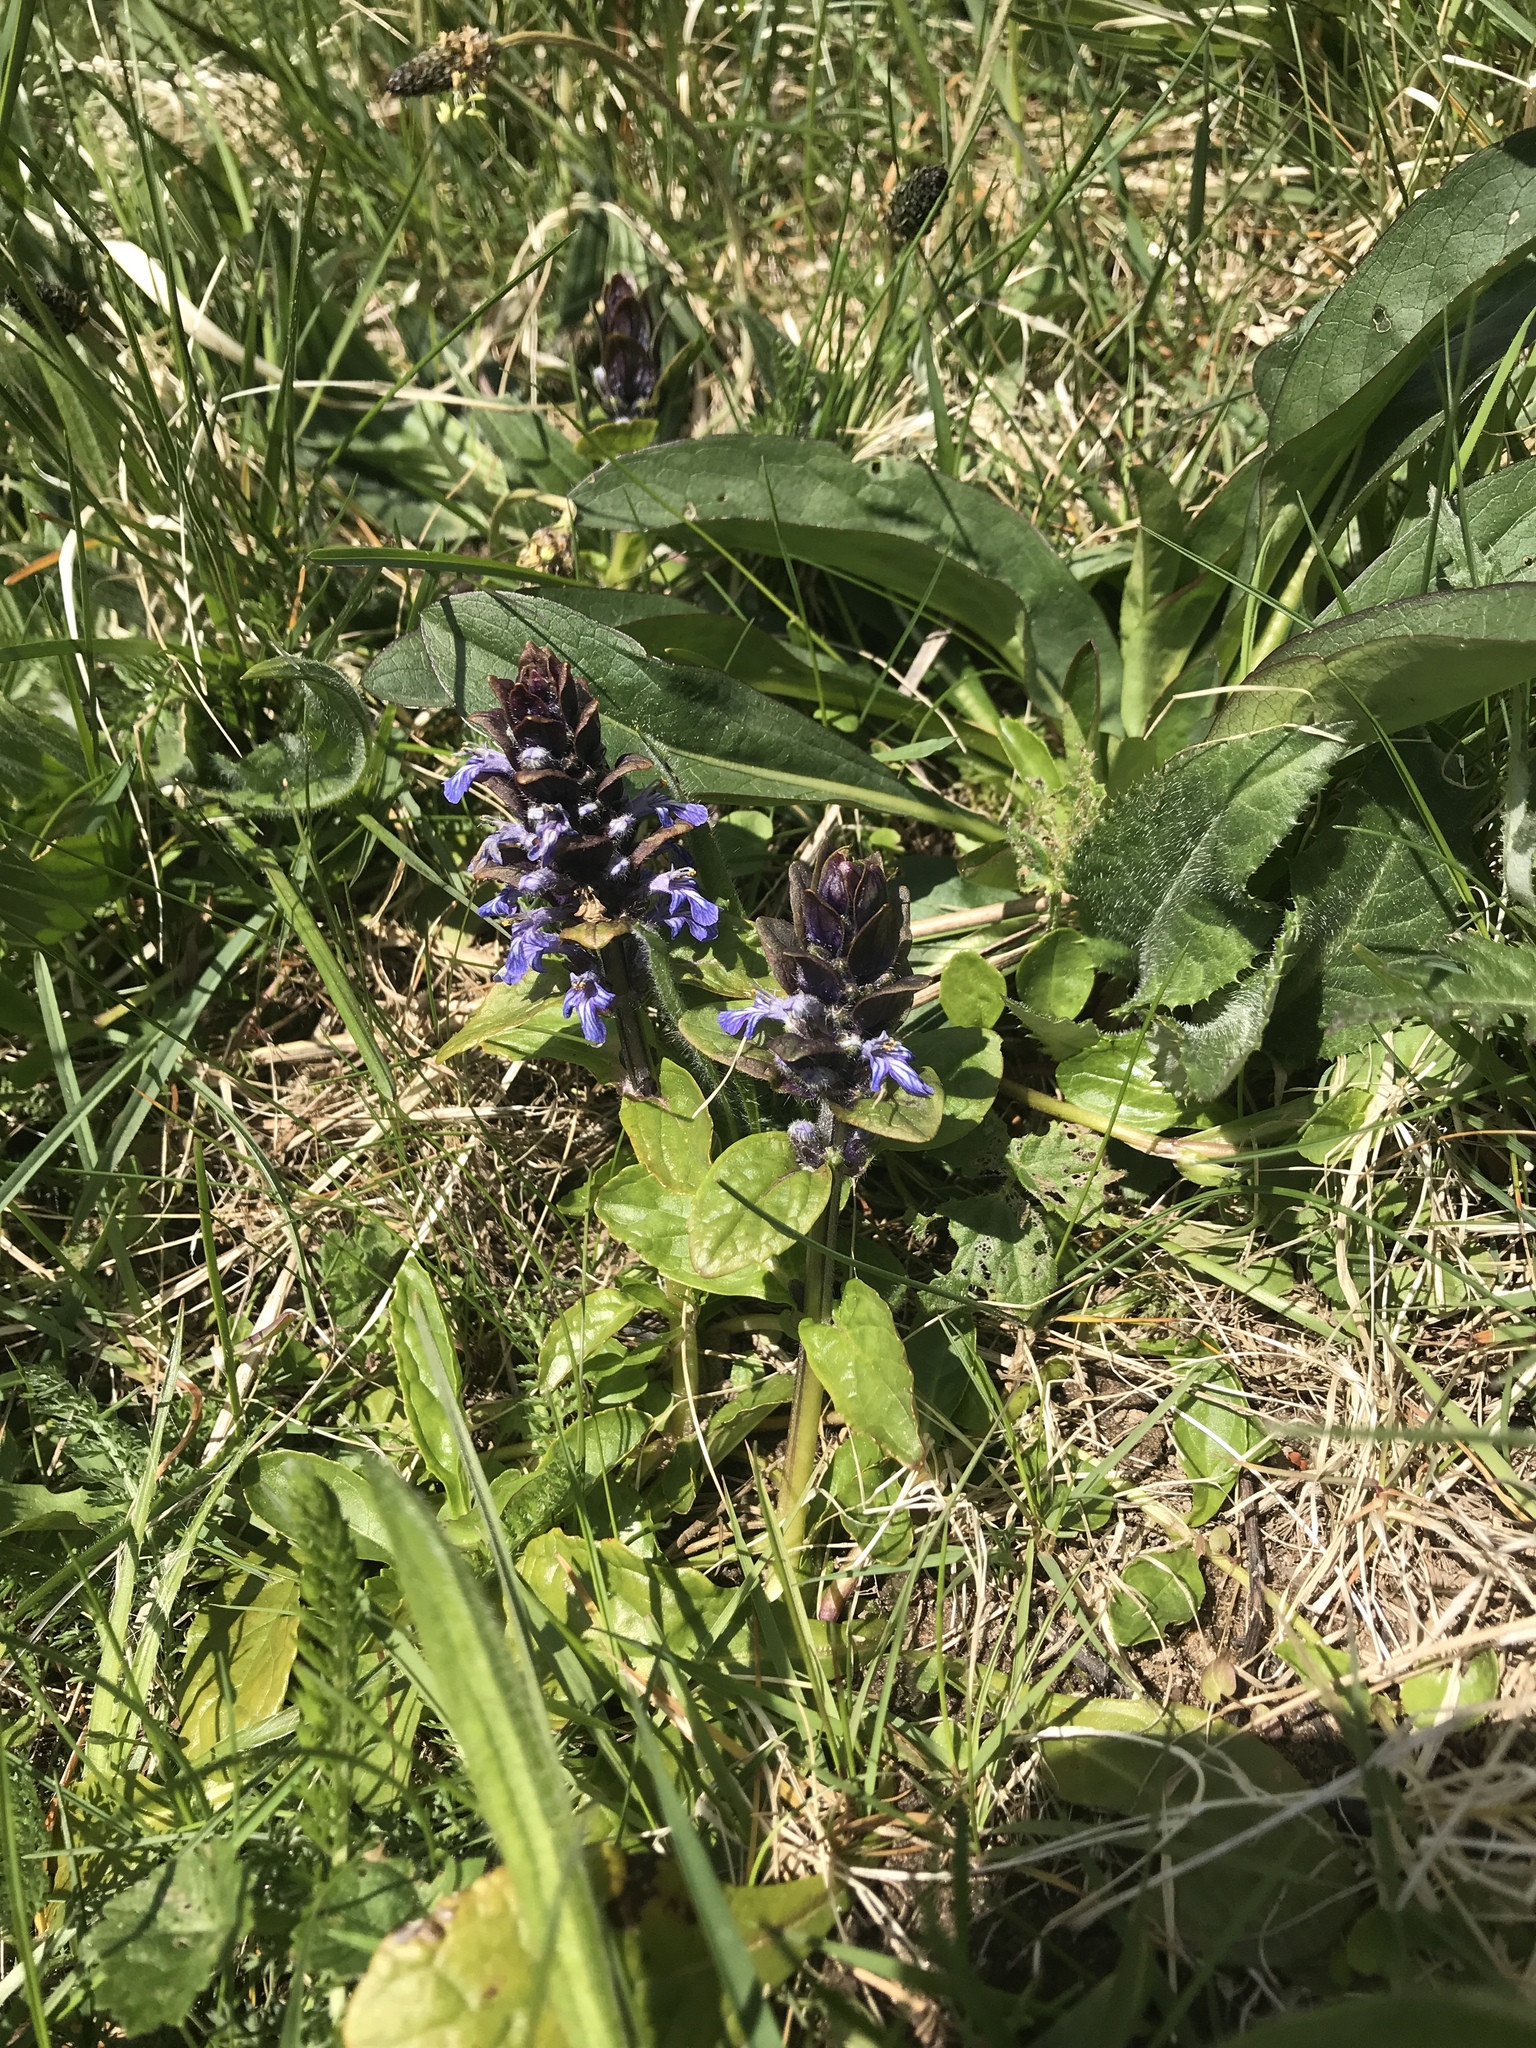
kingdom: Plantae
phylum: Tracheophyta
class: Magnoliopsida
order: Lamiales
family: Lamiaceae
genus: Ajuga
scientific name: Ajuga reptans
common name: Bugle
